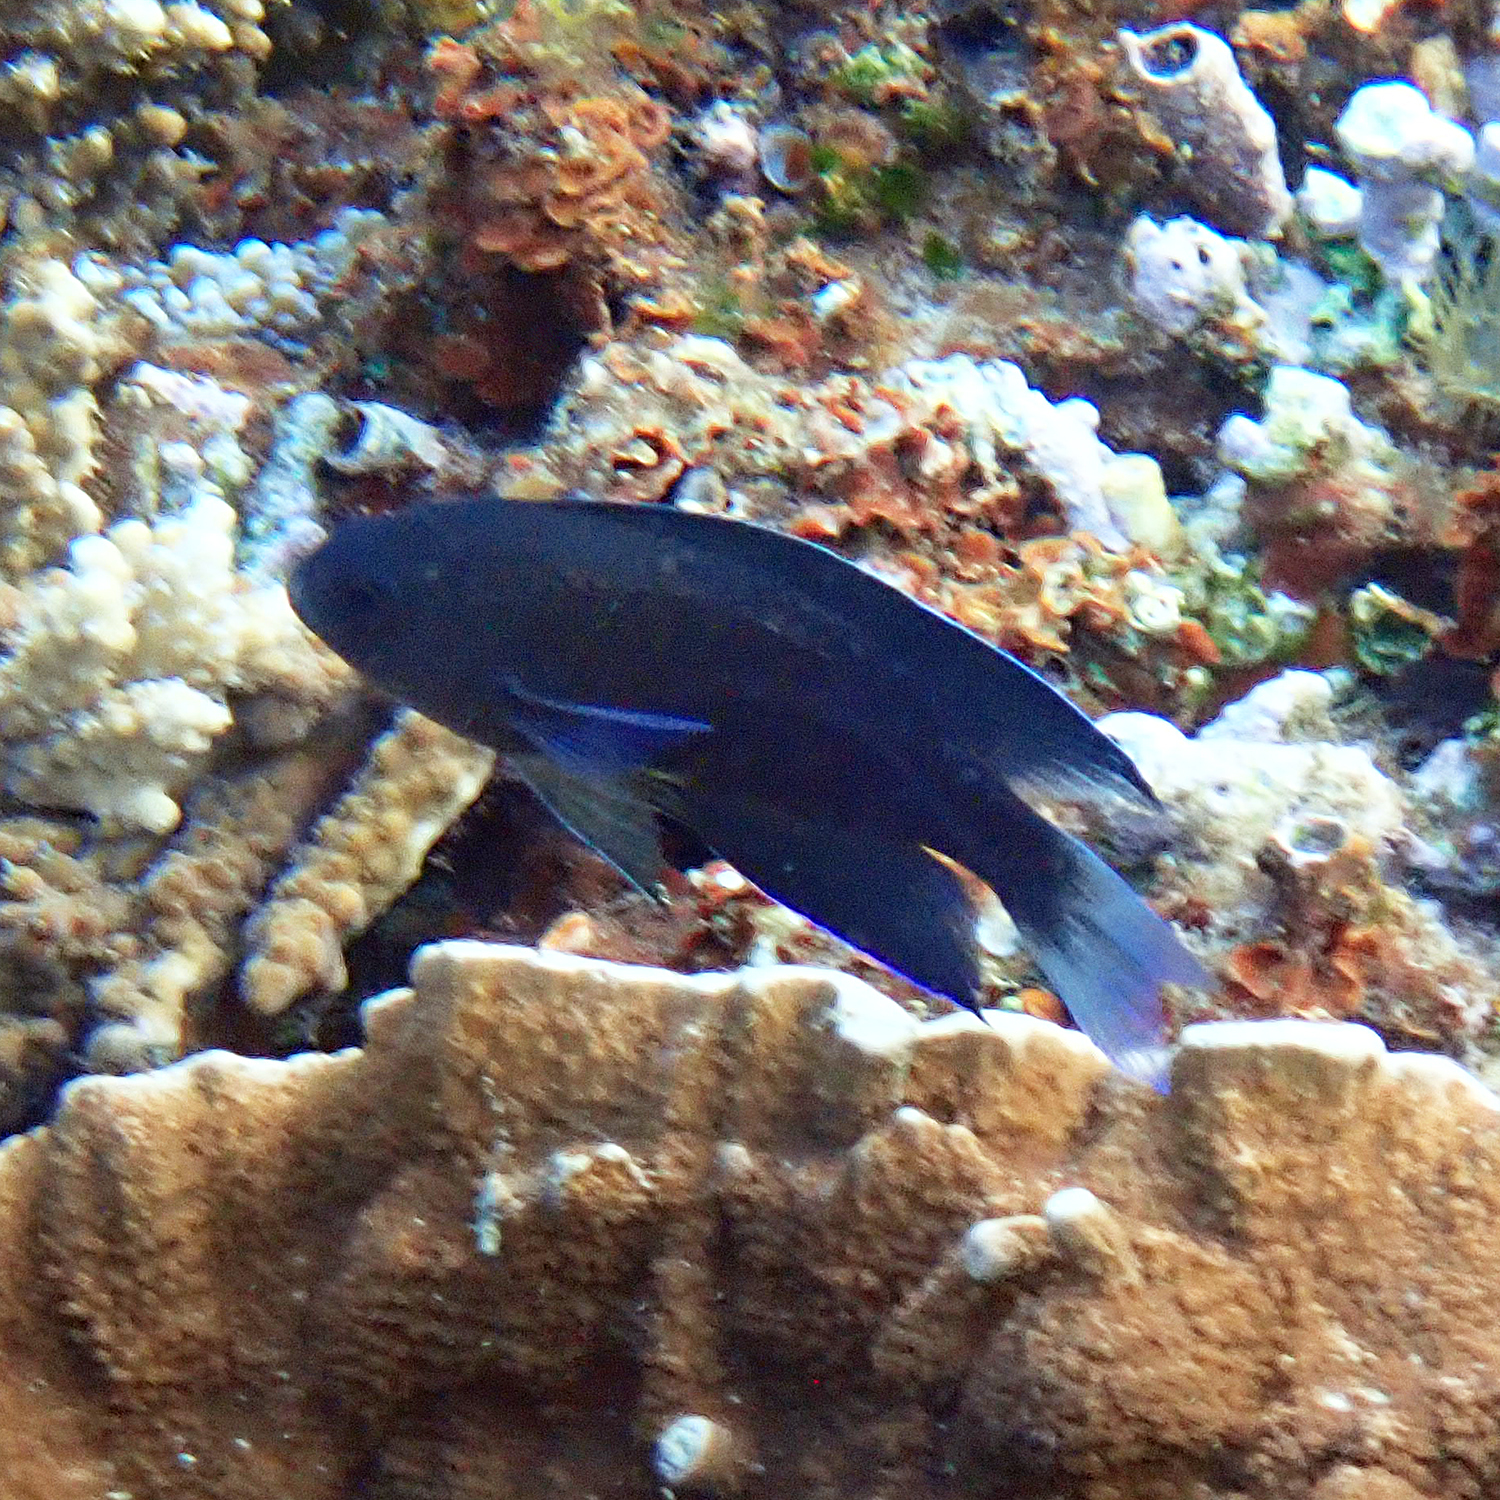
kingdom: Animalia
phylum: Chordata
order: Perciformes
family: Pomacentridae
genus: Chrysiptera
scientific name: Chrysiptera notialis
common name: Southern demoiselle
